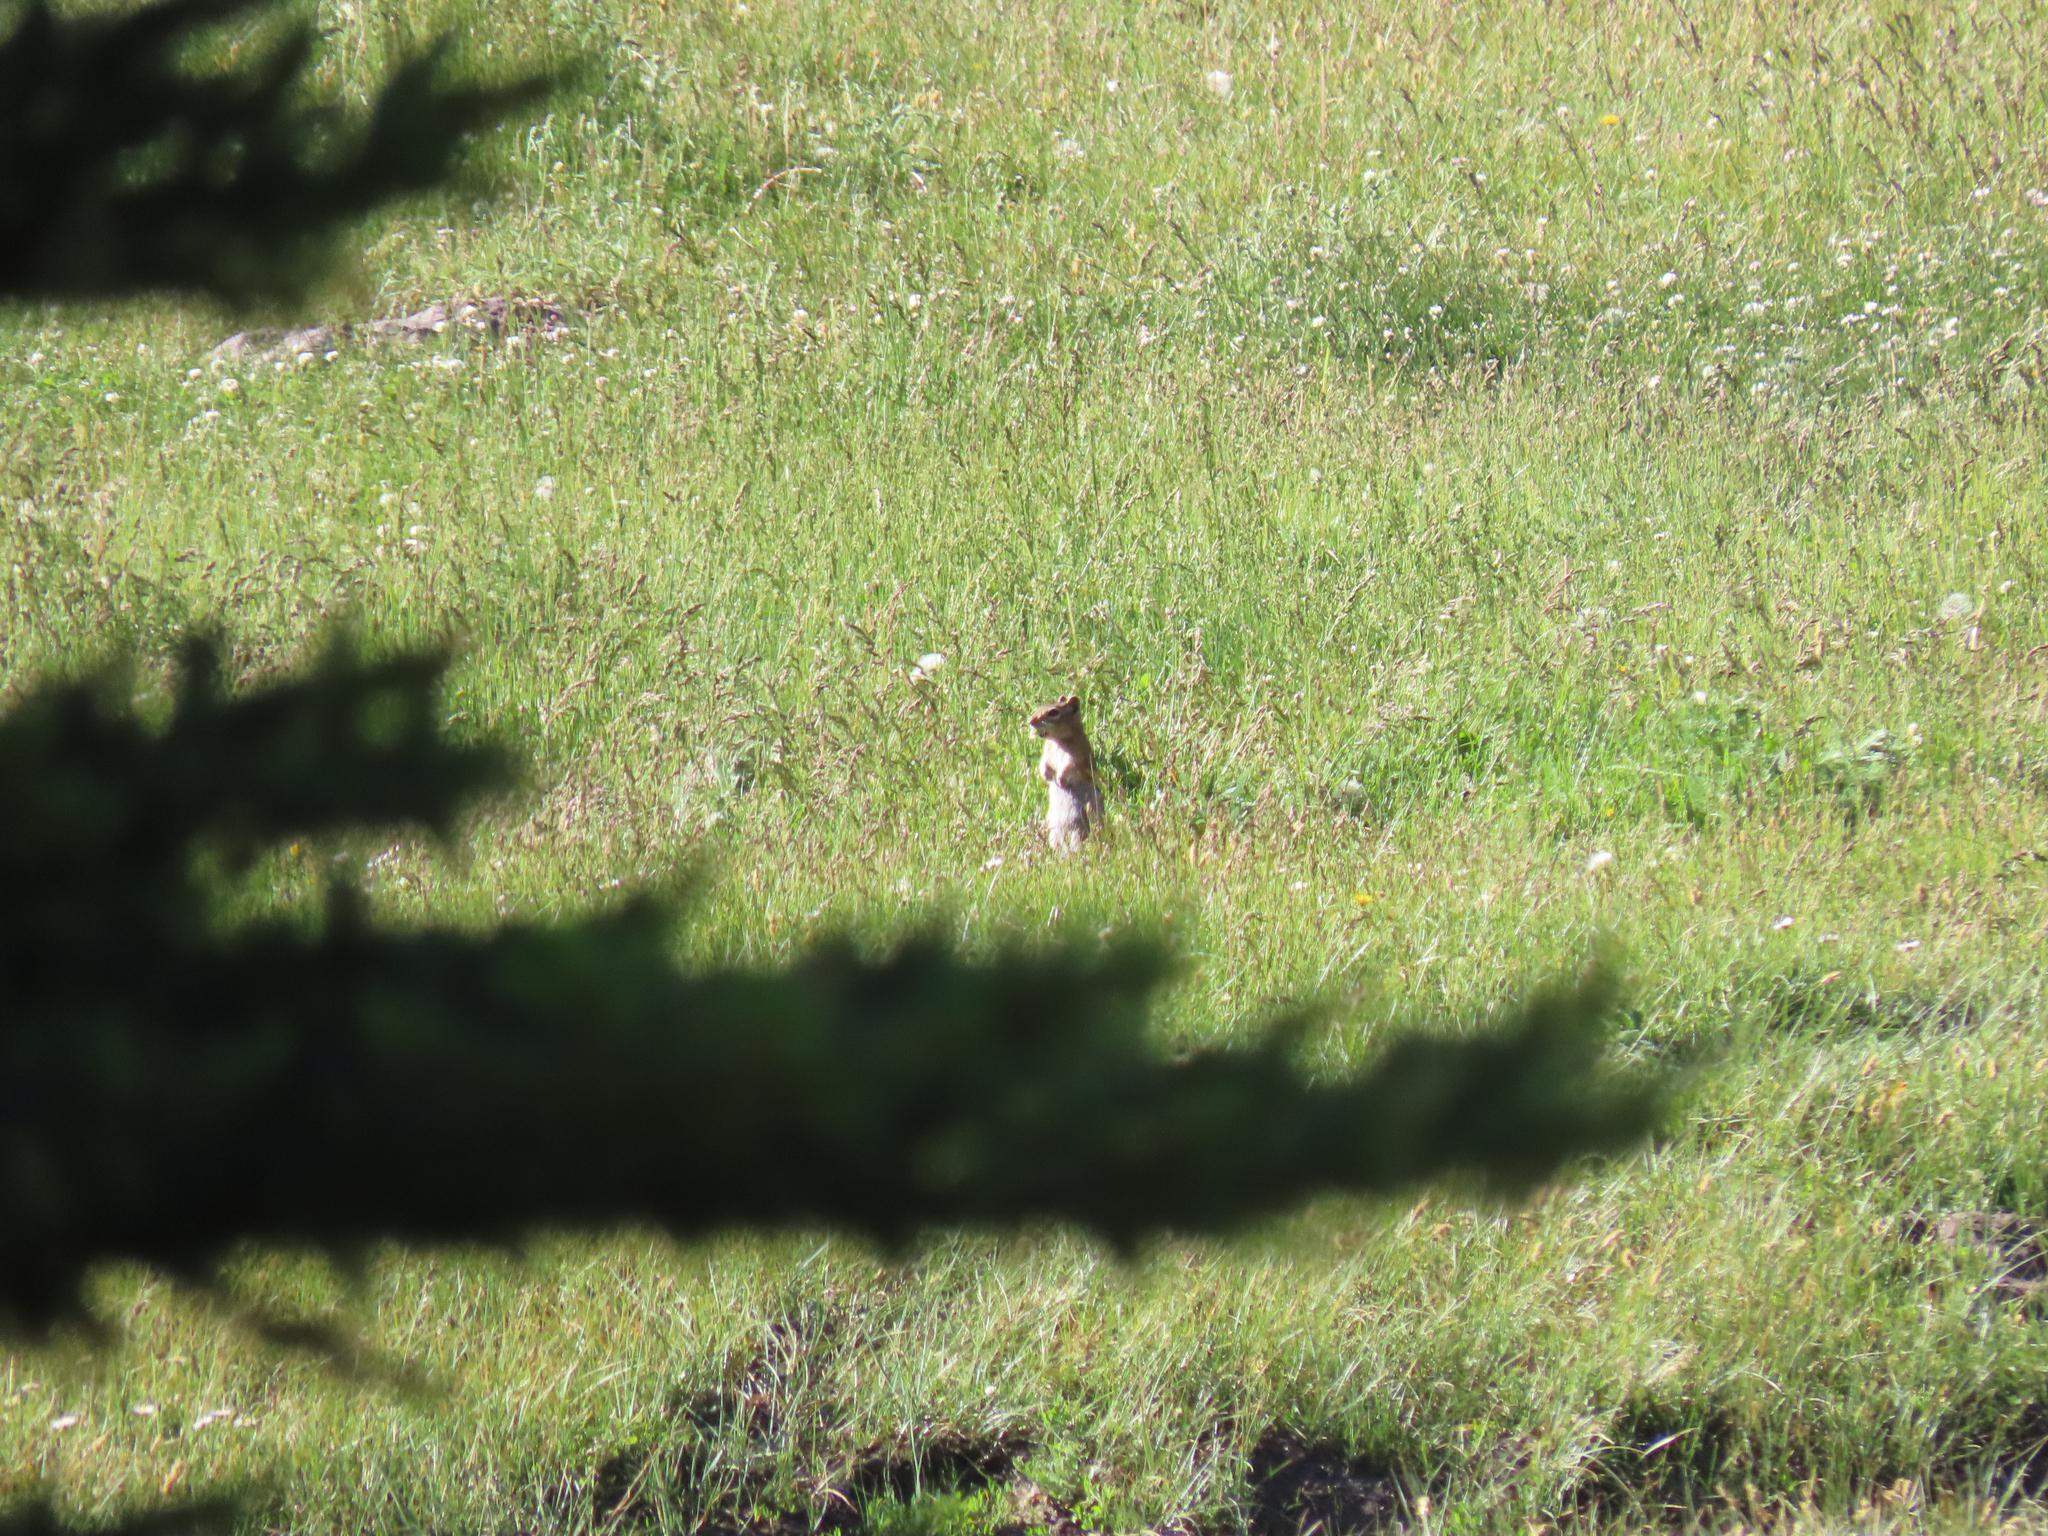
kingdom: Animalia
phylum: Chordata
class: Mammalia
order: Rodentia
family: Sciuridae
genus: Callospermophilus
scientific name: Callospermophilus lateralis
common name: Golden-mantled ground squirrel
